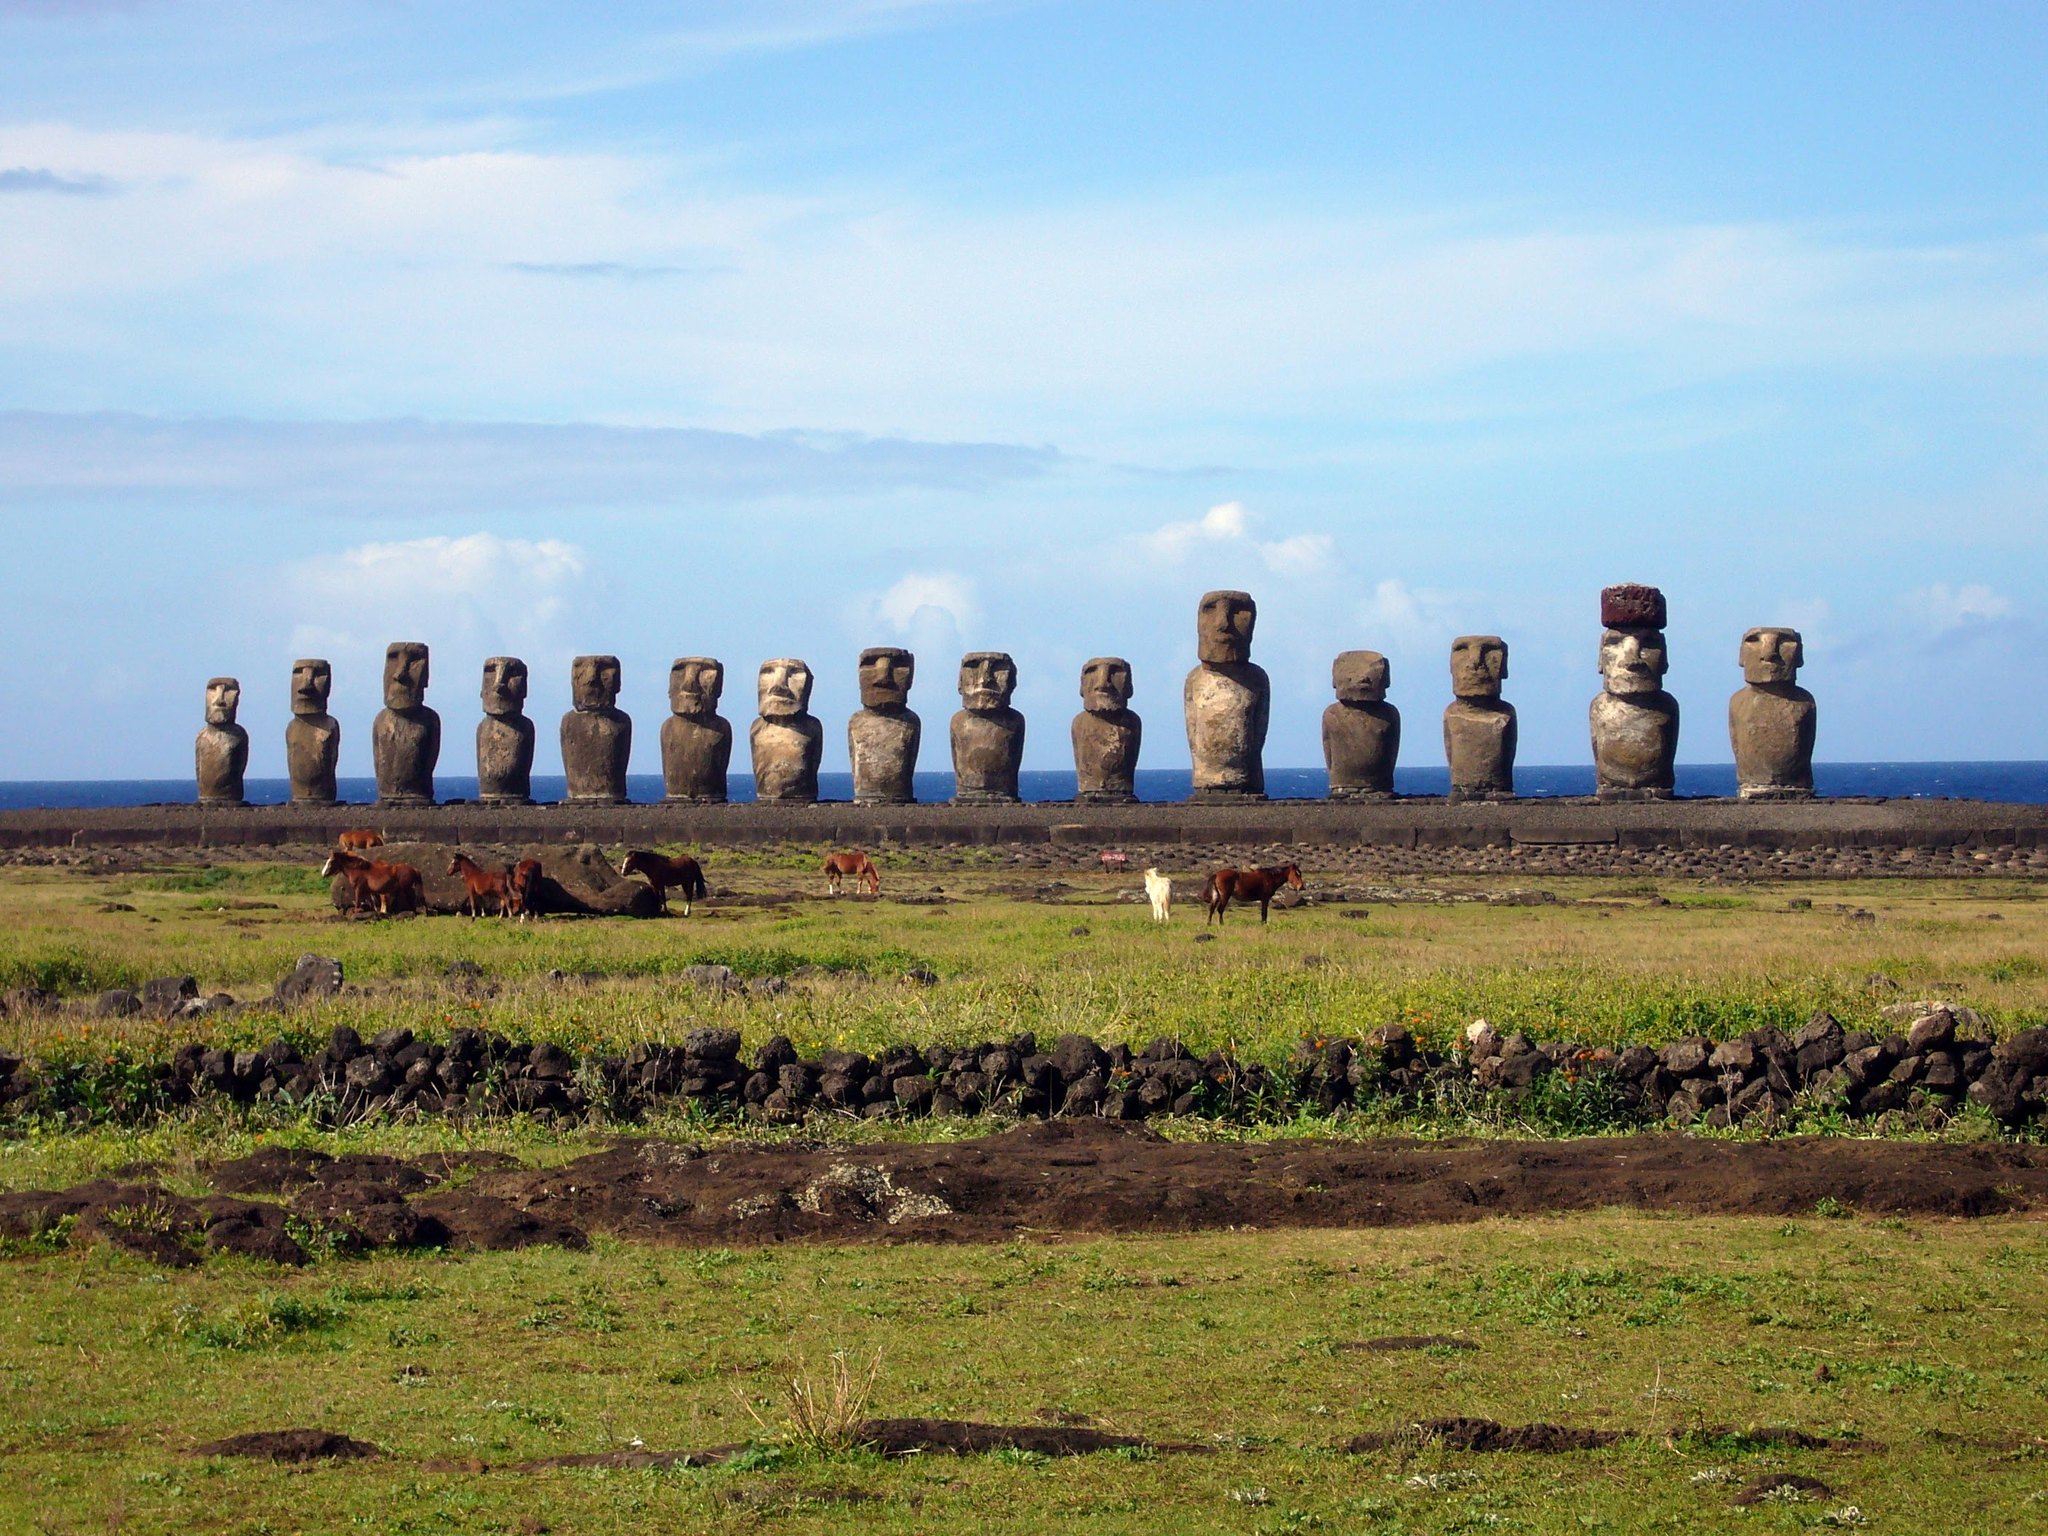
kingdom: Animalia
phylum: Chordata
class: Mammalia
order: Perissodactyla
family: Equidae
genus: Equus
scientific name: Equus caballus
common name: Horse
